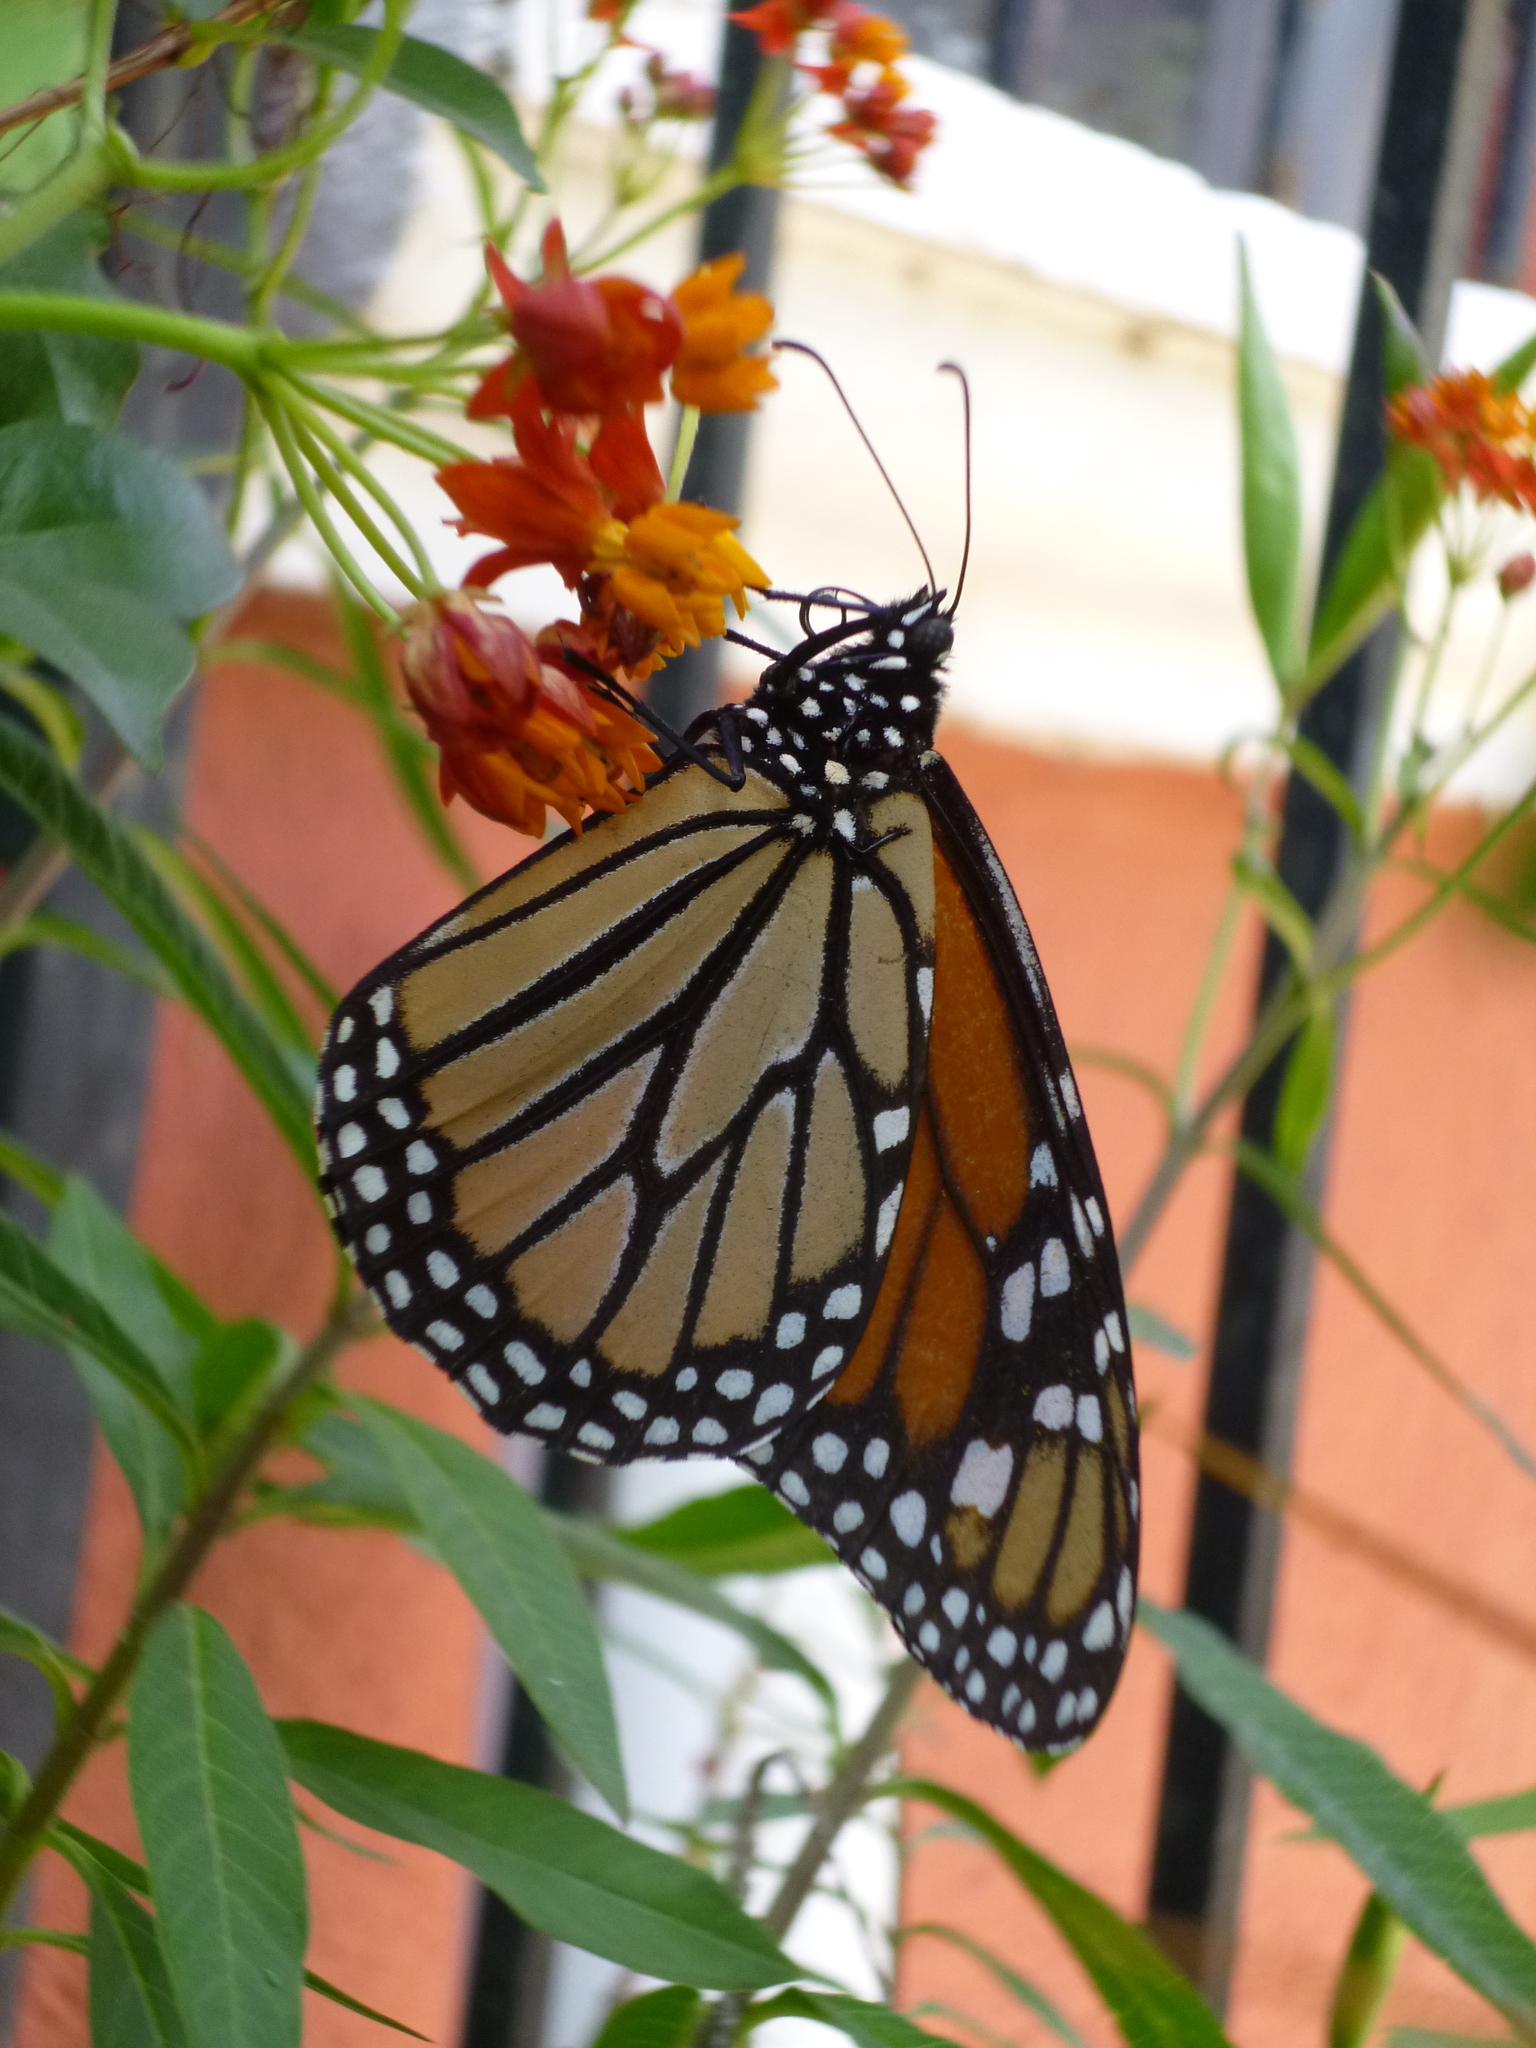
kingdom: Animalia
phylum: Arthropoda
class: Insecta
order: Lepidoptera
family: Nymphalidae
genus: Danaus
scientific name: Danaus plexippus
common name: Monarch
